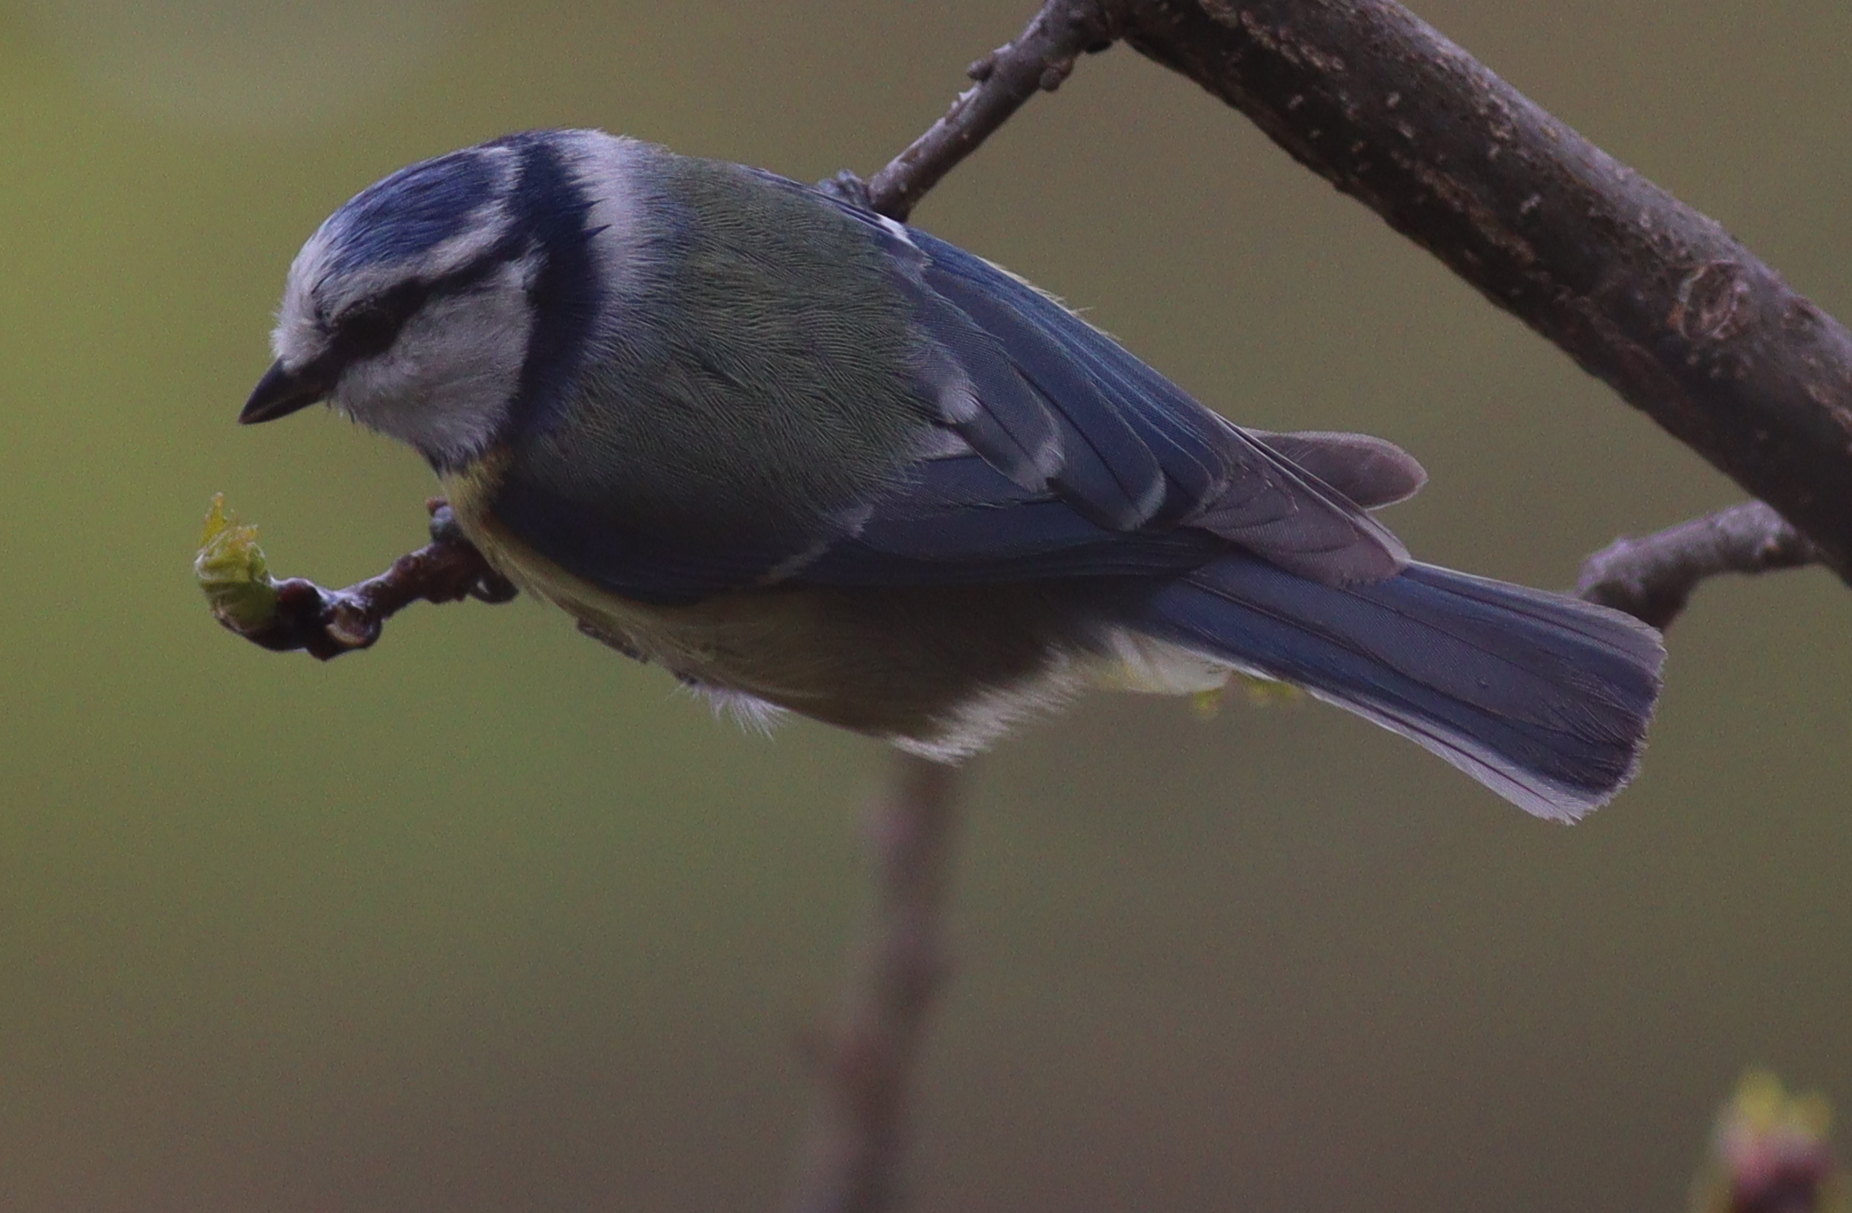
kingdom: Animalia
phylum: Chordata
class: Aves
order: Passeriformes
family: Paridae
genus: Cyanistes
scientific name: Cyanistes caeruleus
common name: Eurasian blue tit
